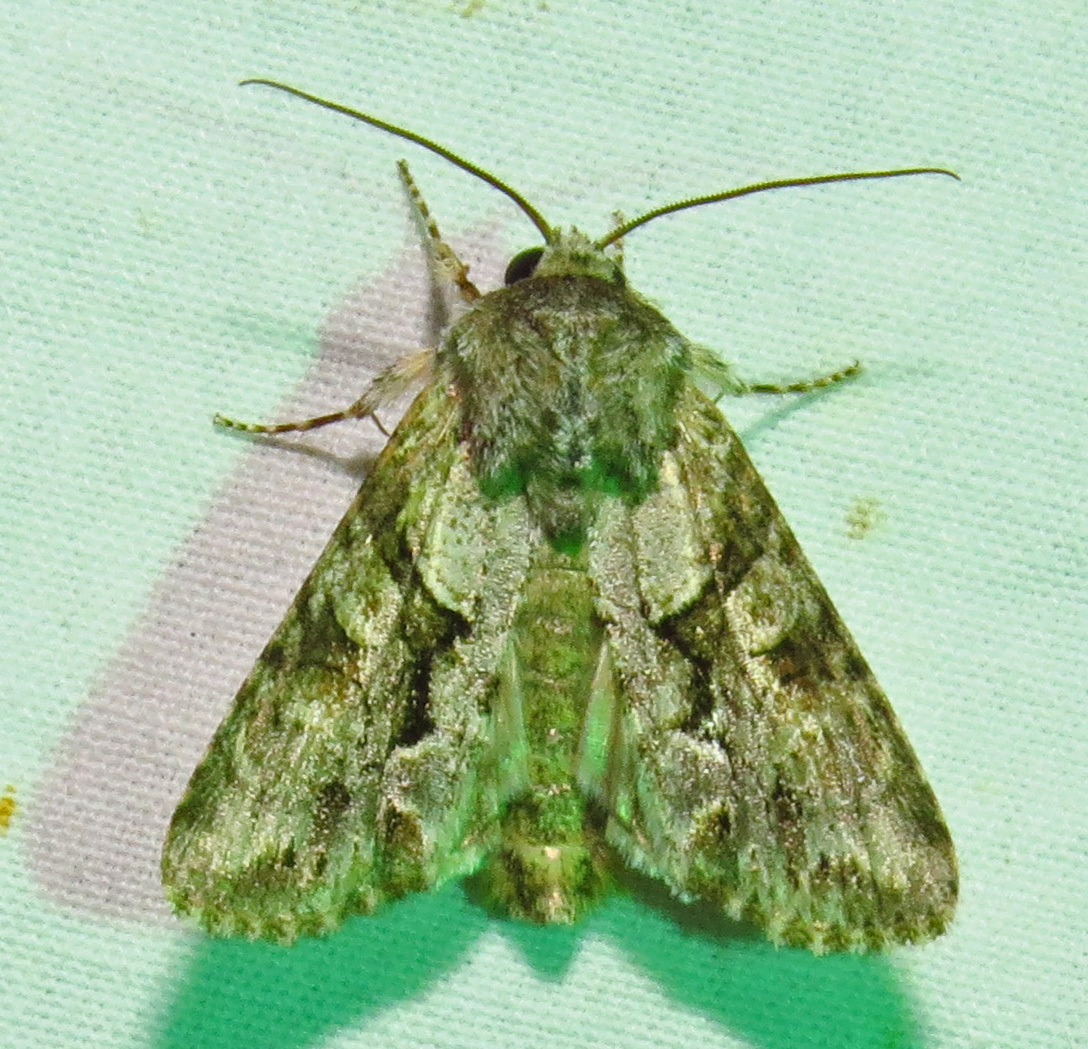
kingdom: Animalia
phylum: Arthropoda
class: Insecta
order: Lepidoptera
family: Noctuidae
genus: Achatia
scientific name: Achatia distincta
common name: Distinct quaker
